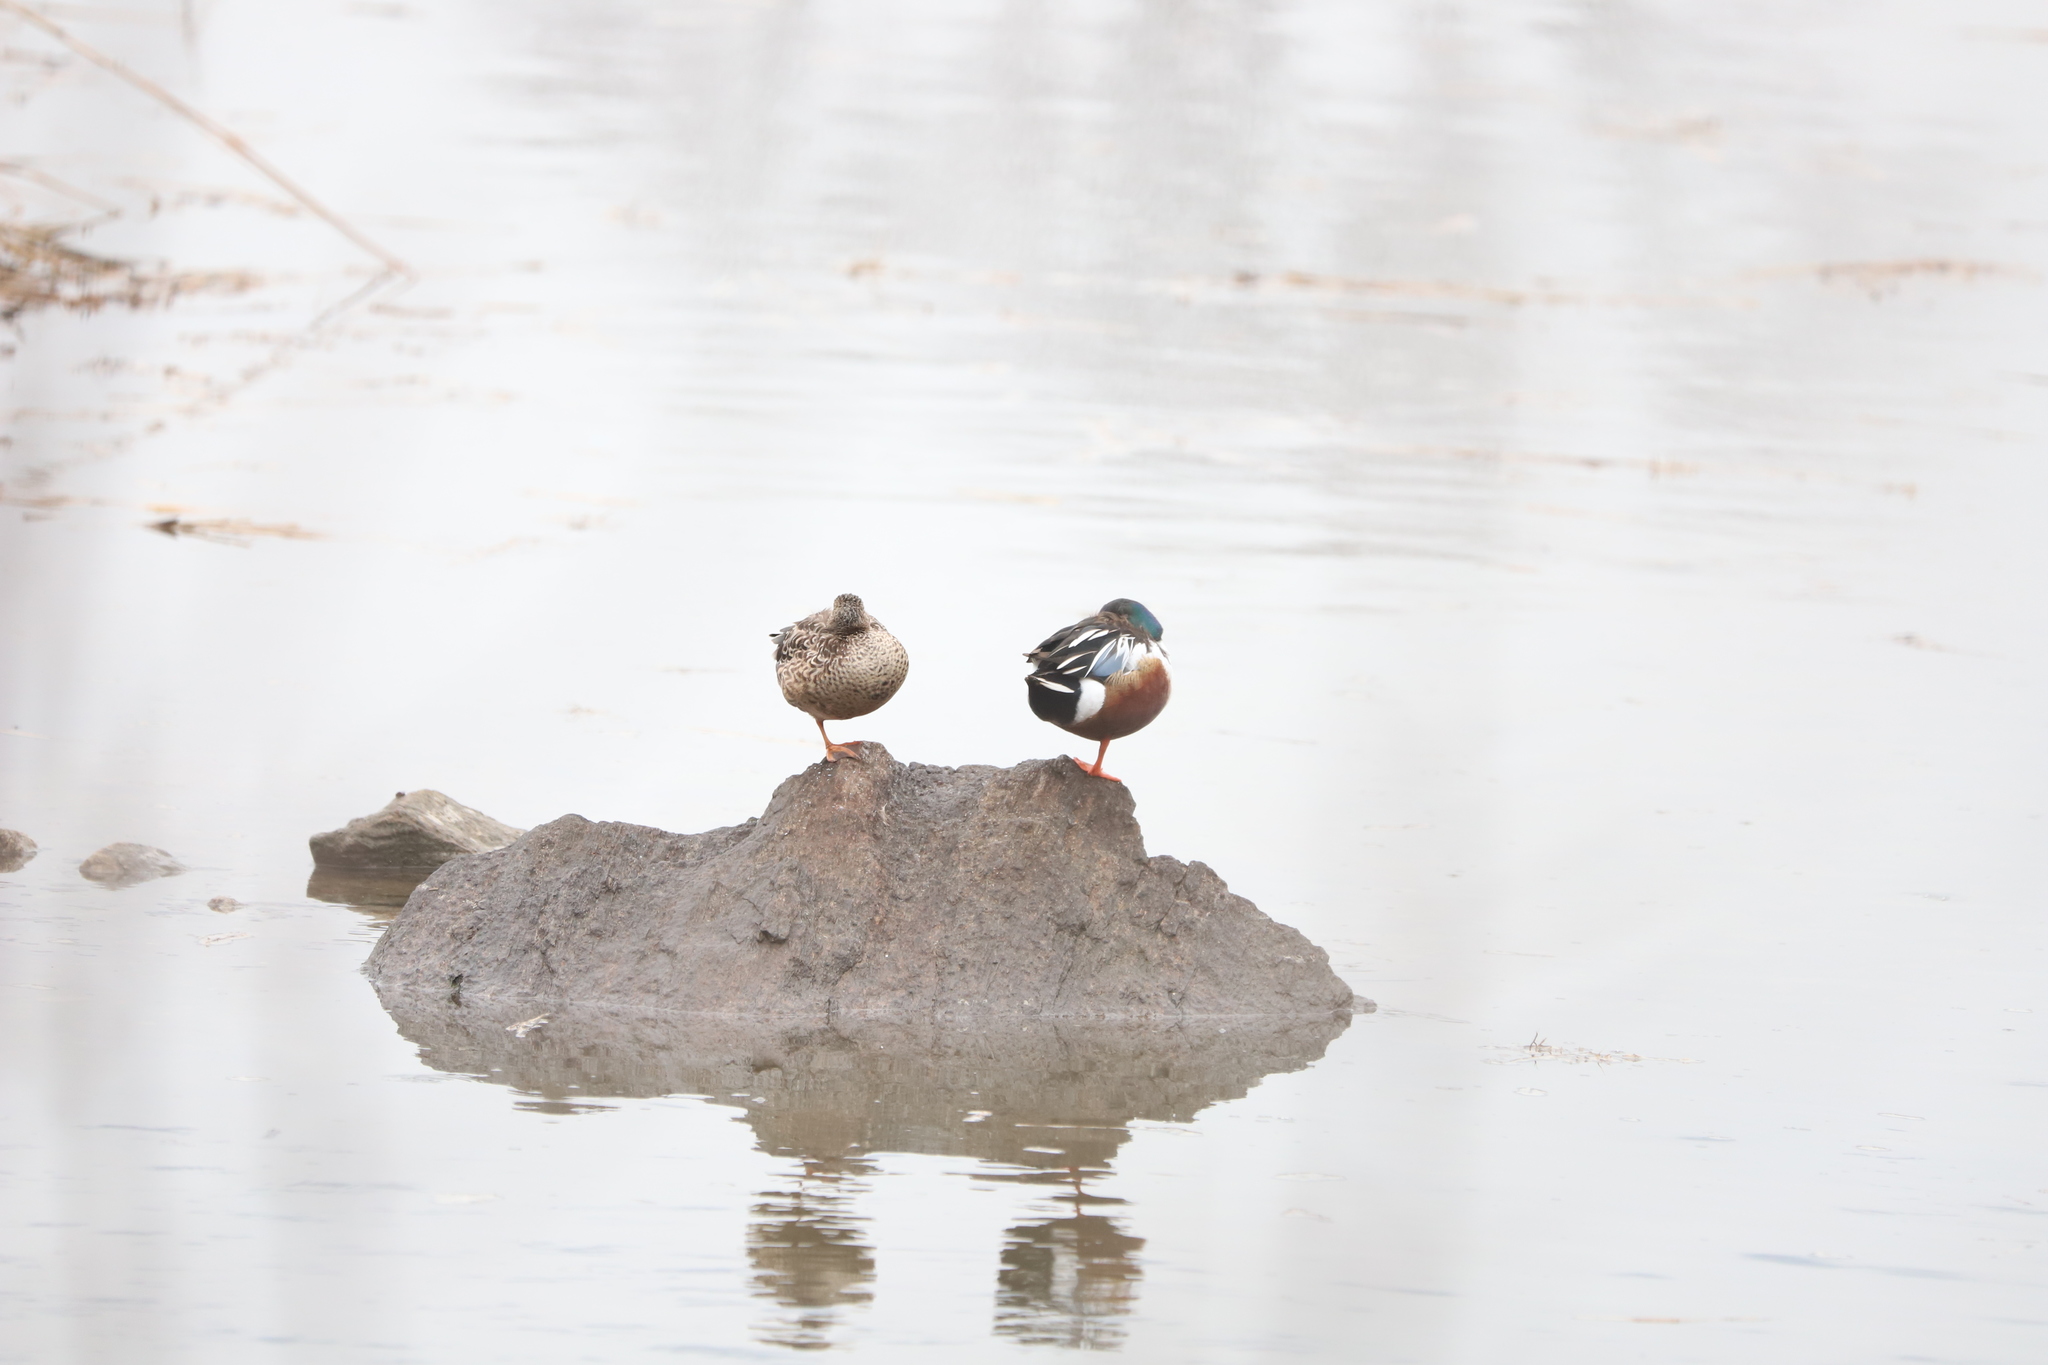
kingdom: Animalia
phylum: Chordata
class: Aves
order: Anseriformes
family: Anatidae
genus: Spatula
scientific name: Spatula clypeata
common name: Northern shoveler
